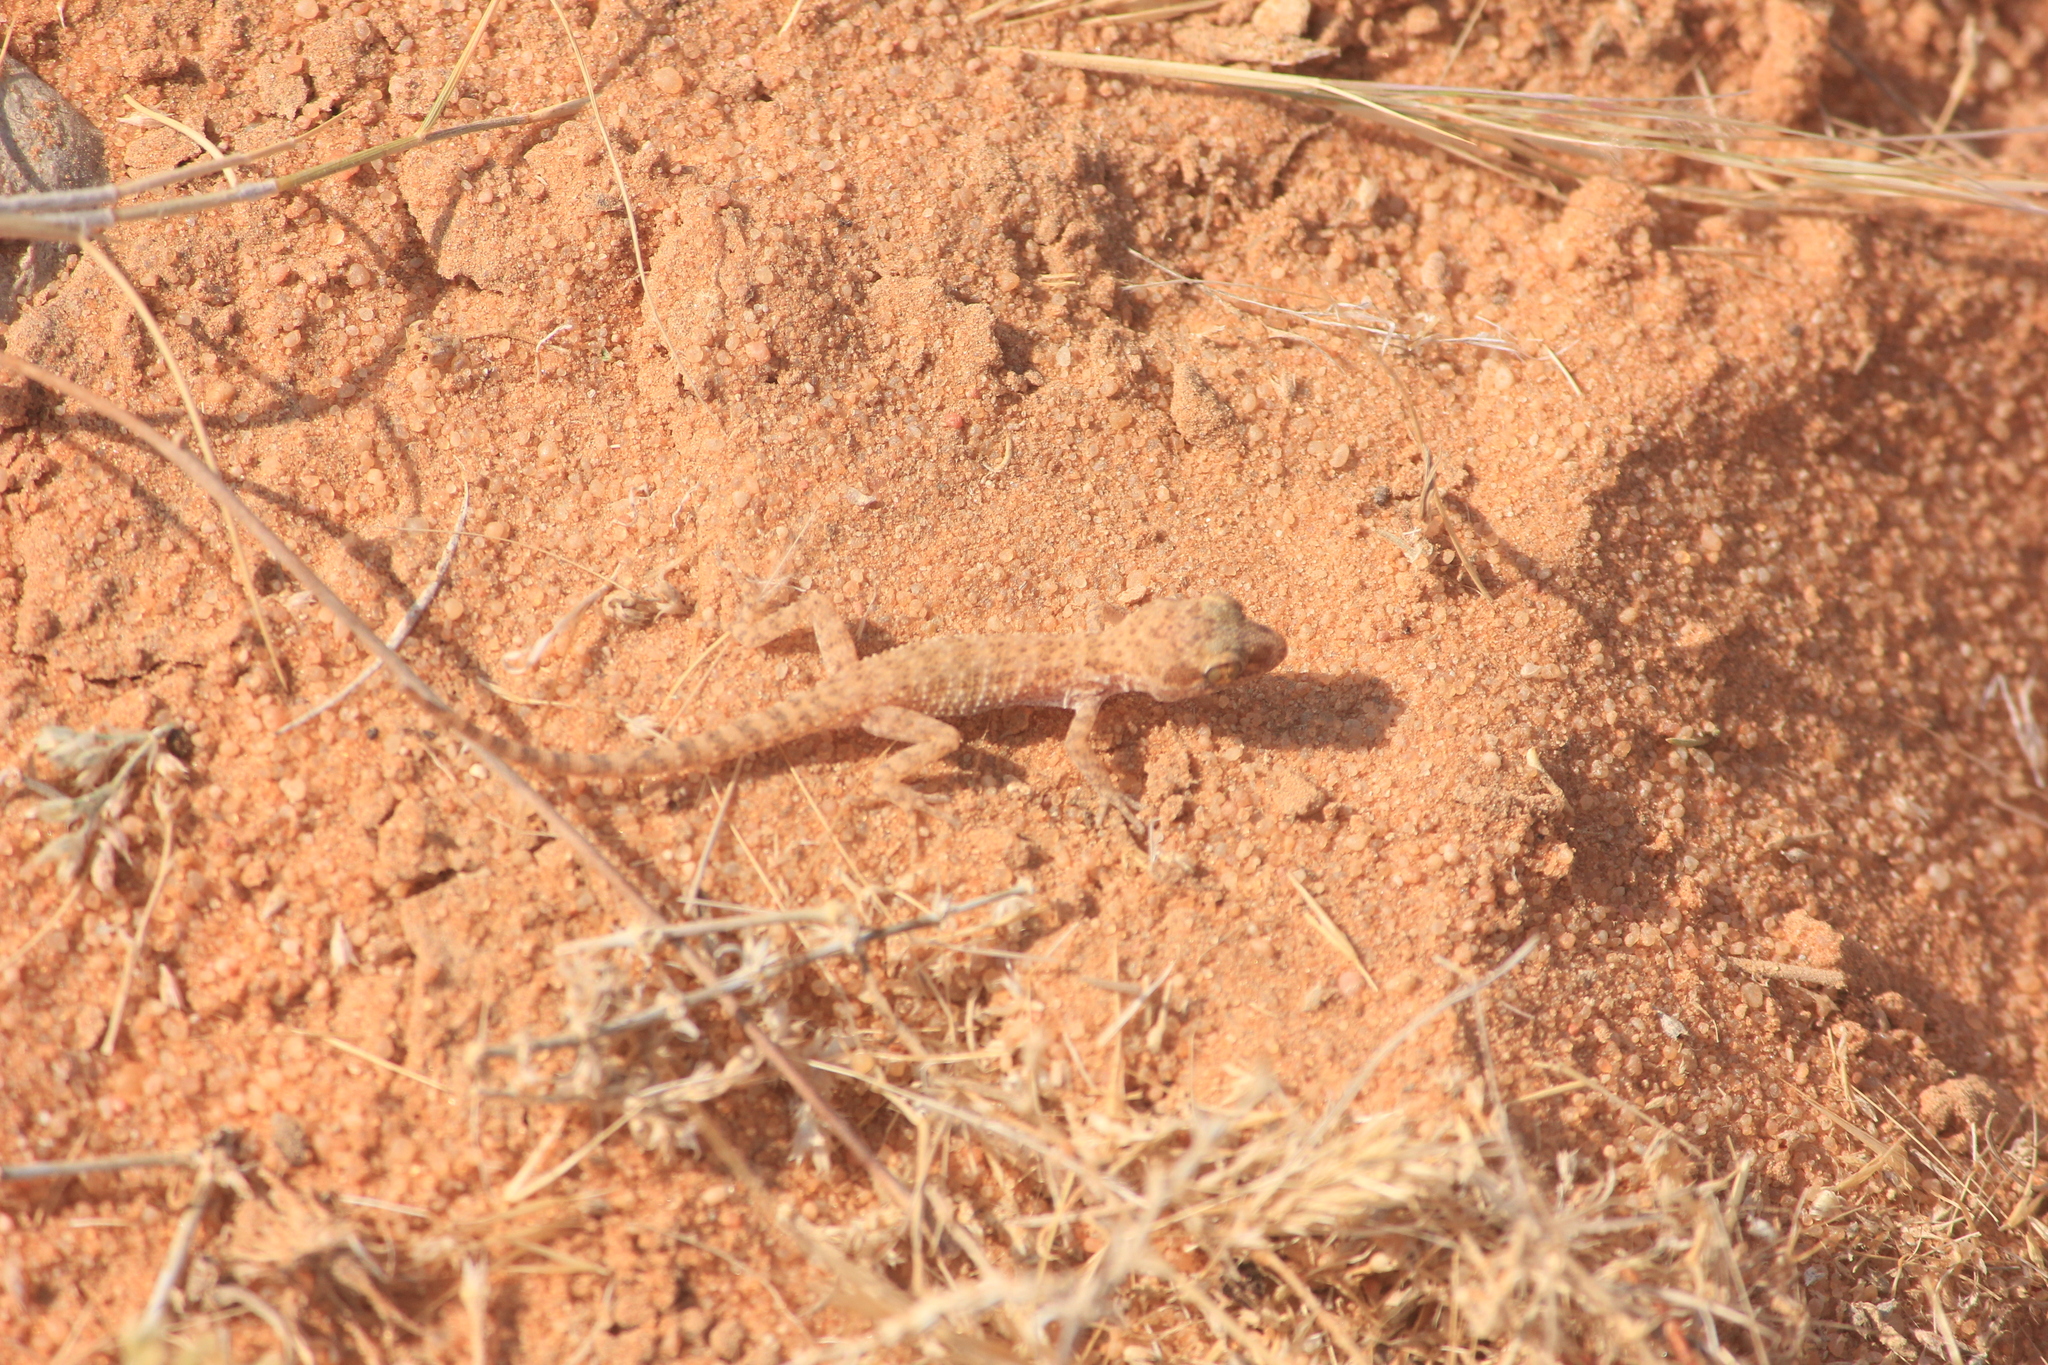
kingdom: Animalia
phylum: Chordata
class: Squamata
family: Gekkonidae
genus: Bunopus
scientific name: Bunopus tuberculatus
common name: Southern tuberculated gecko
